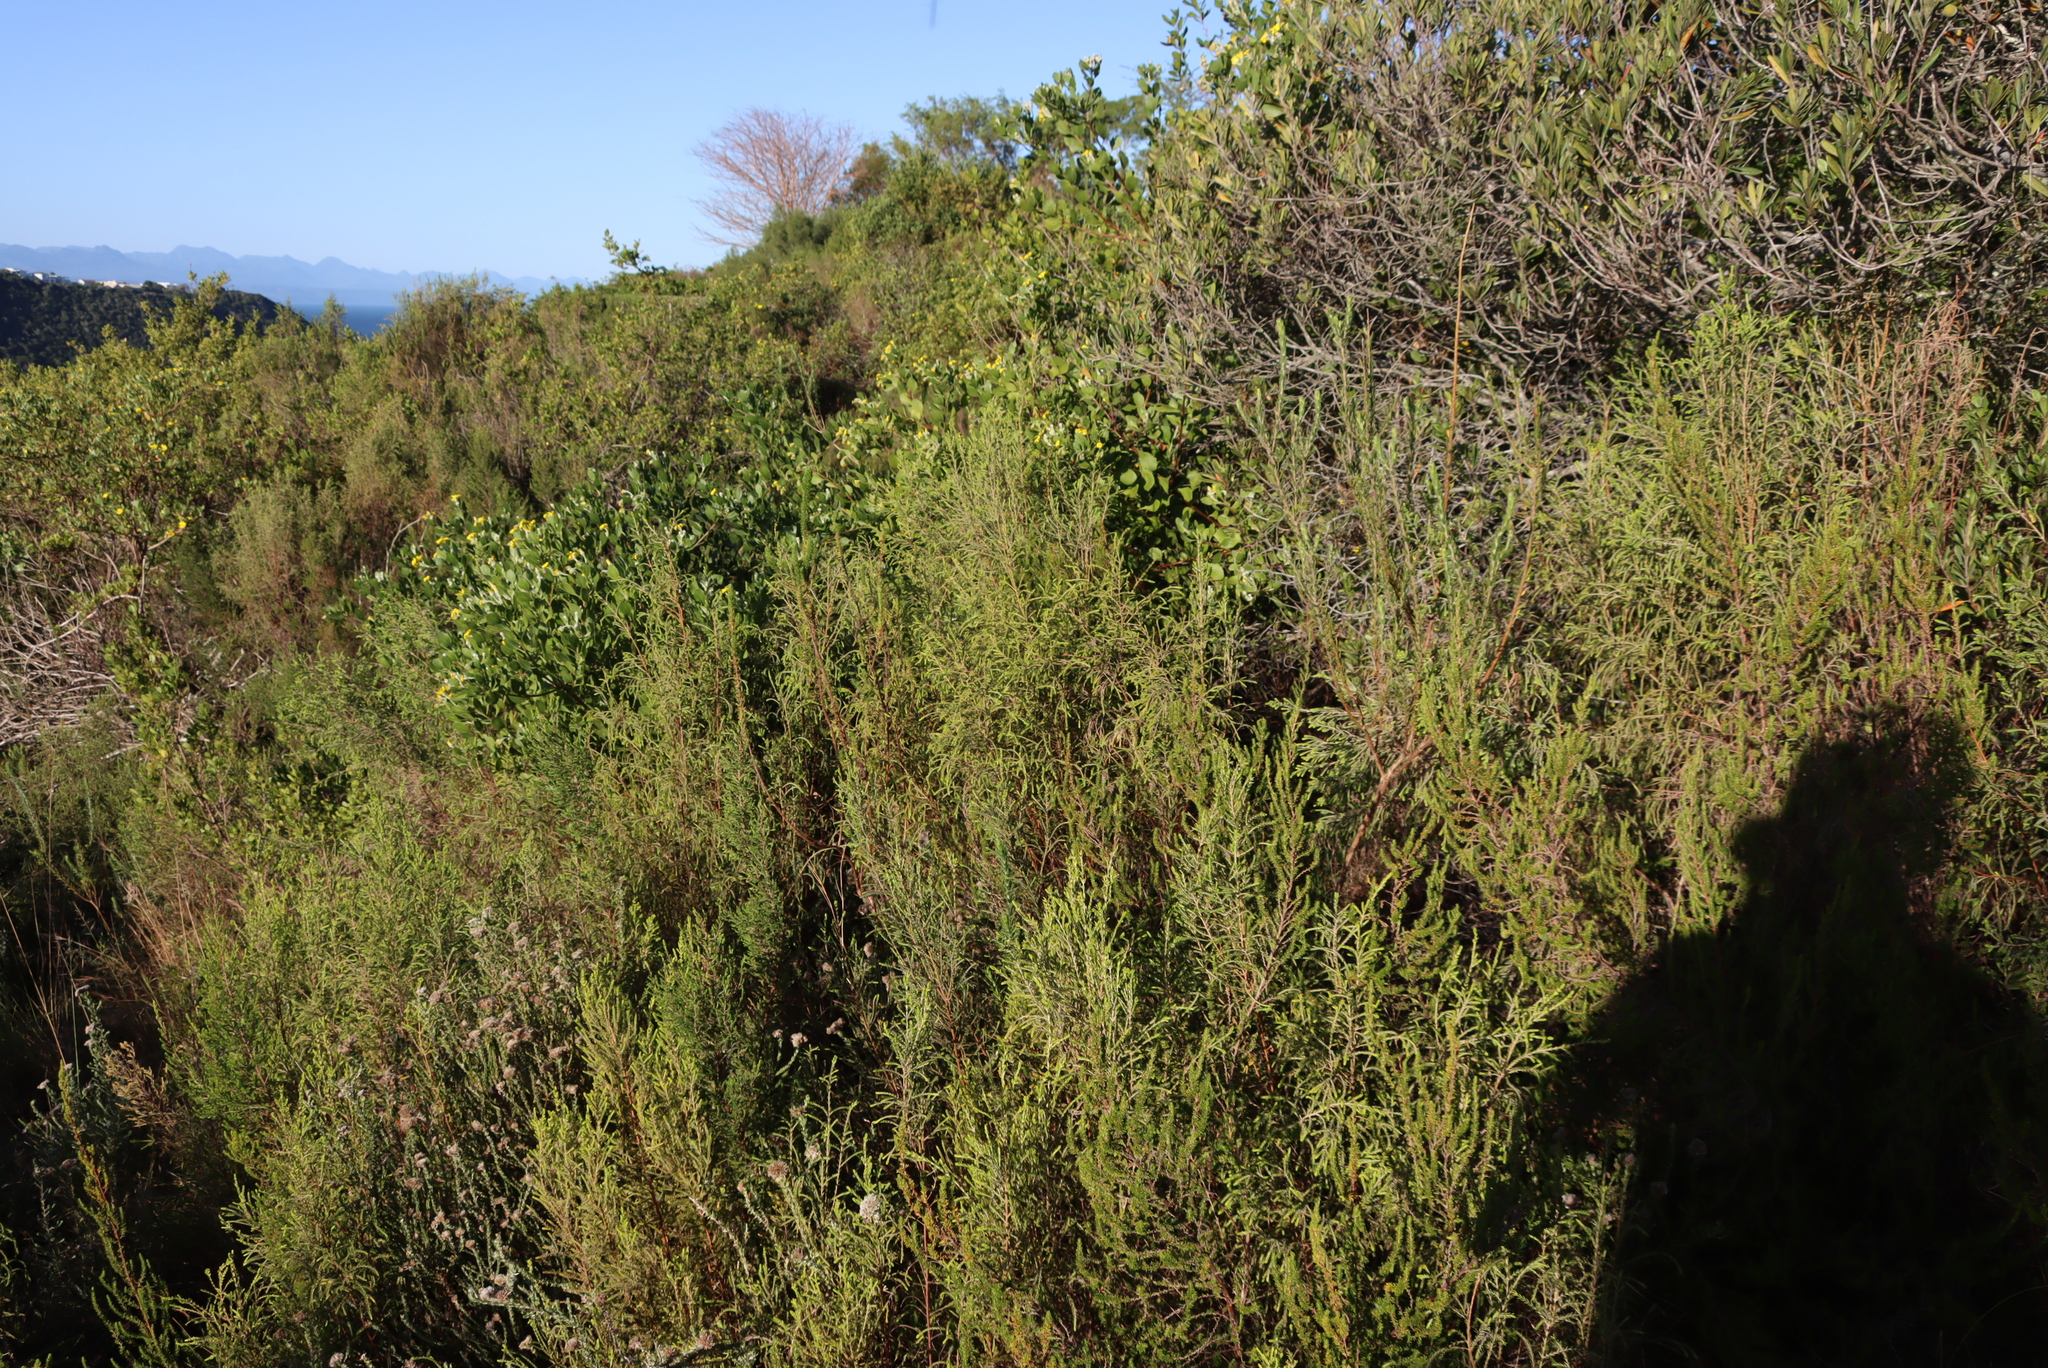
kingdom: Plantae
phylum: Tracheophyta
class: Magnoliopsida
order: Malvales
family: Thymelaeaceae
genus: Passerina
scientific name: Passerina falcifolia
